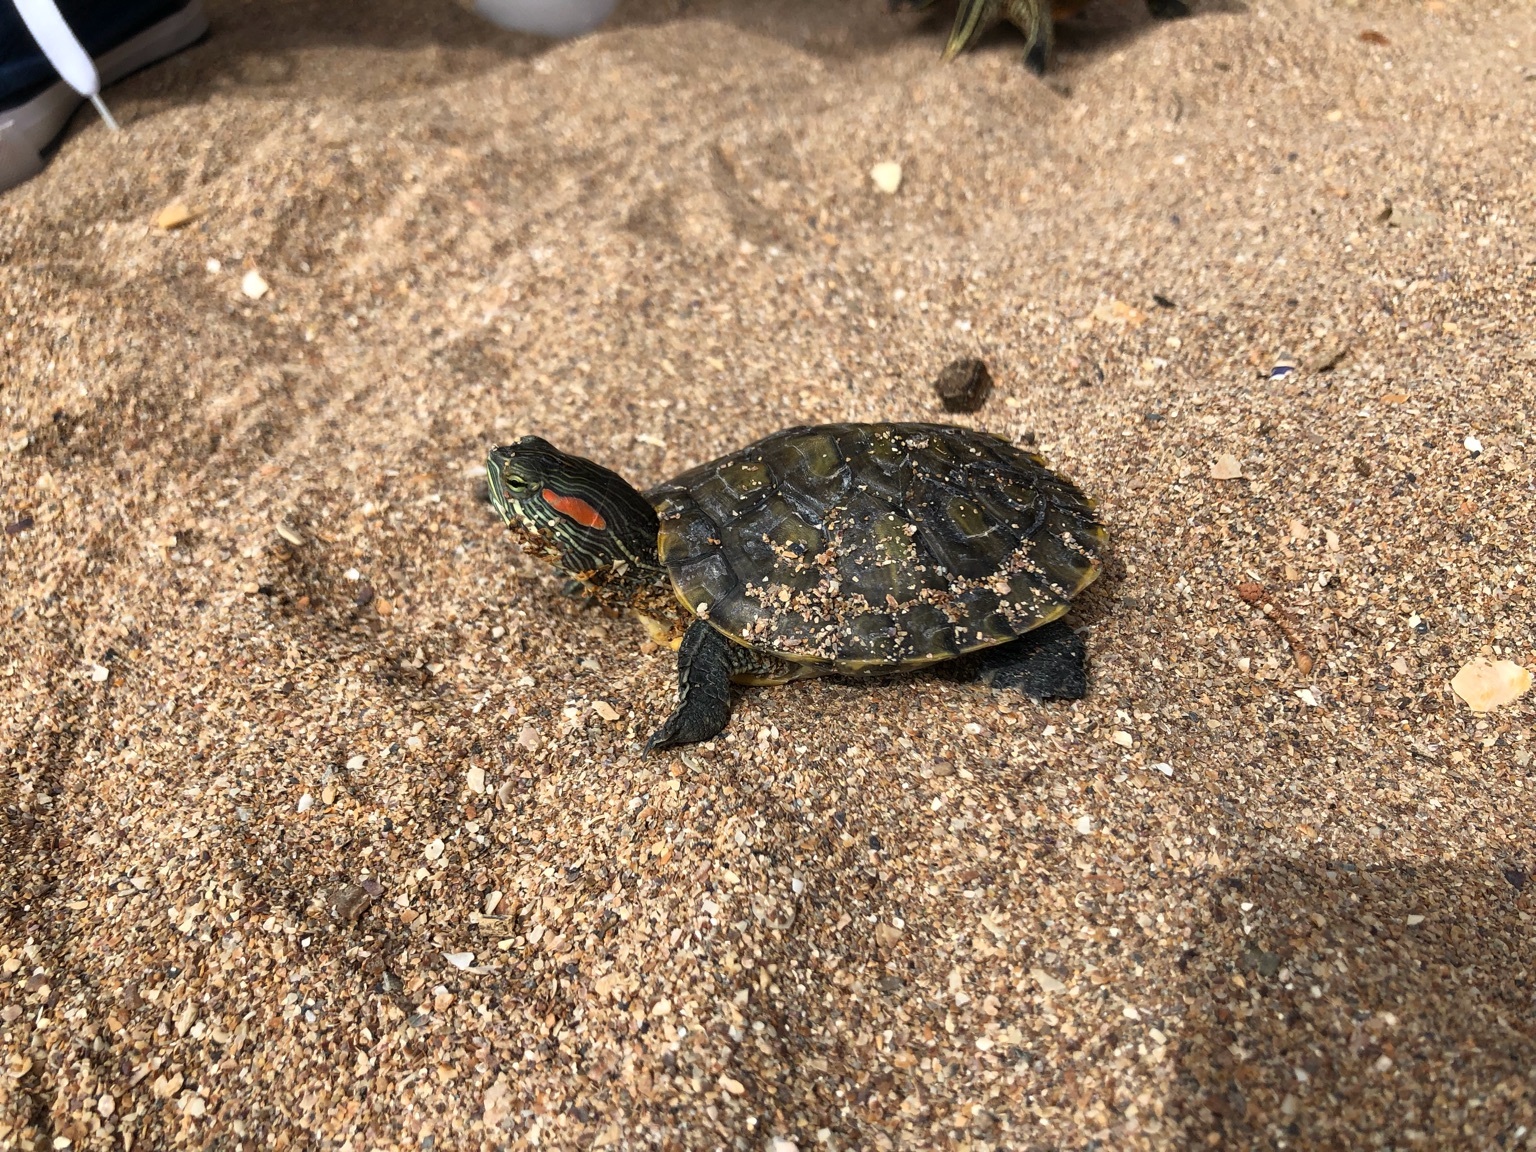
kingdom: Animalia
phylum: Chordata
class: Testudines
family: Emydidae
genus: Trachemys
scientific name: Trachemys scripta
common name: Slider
